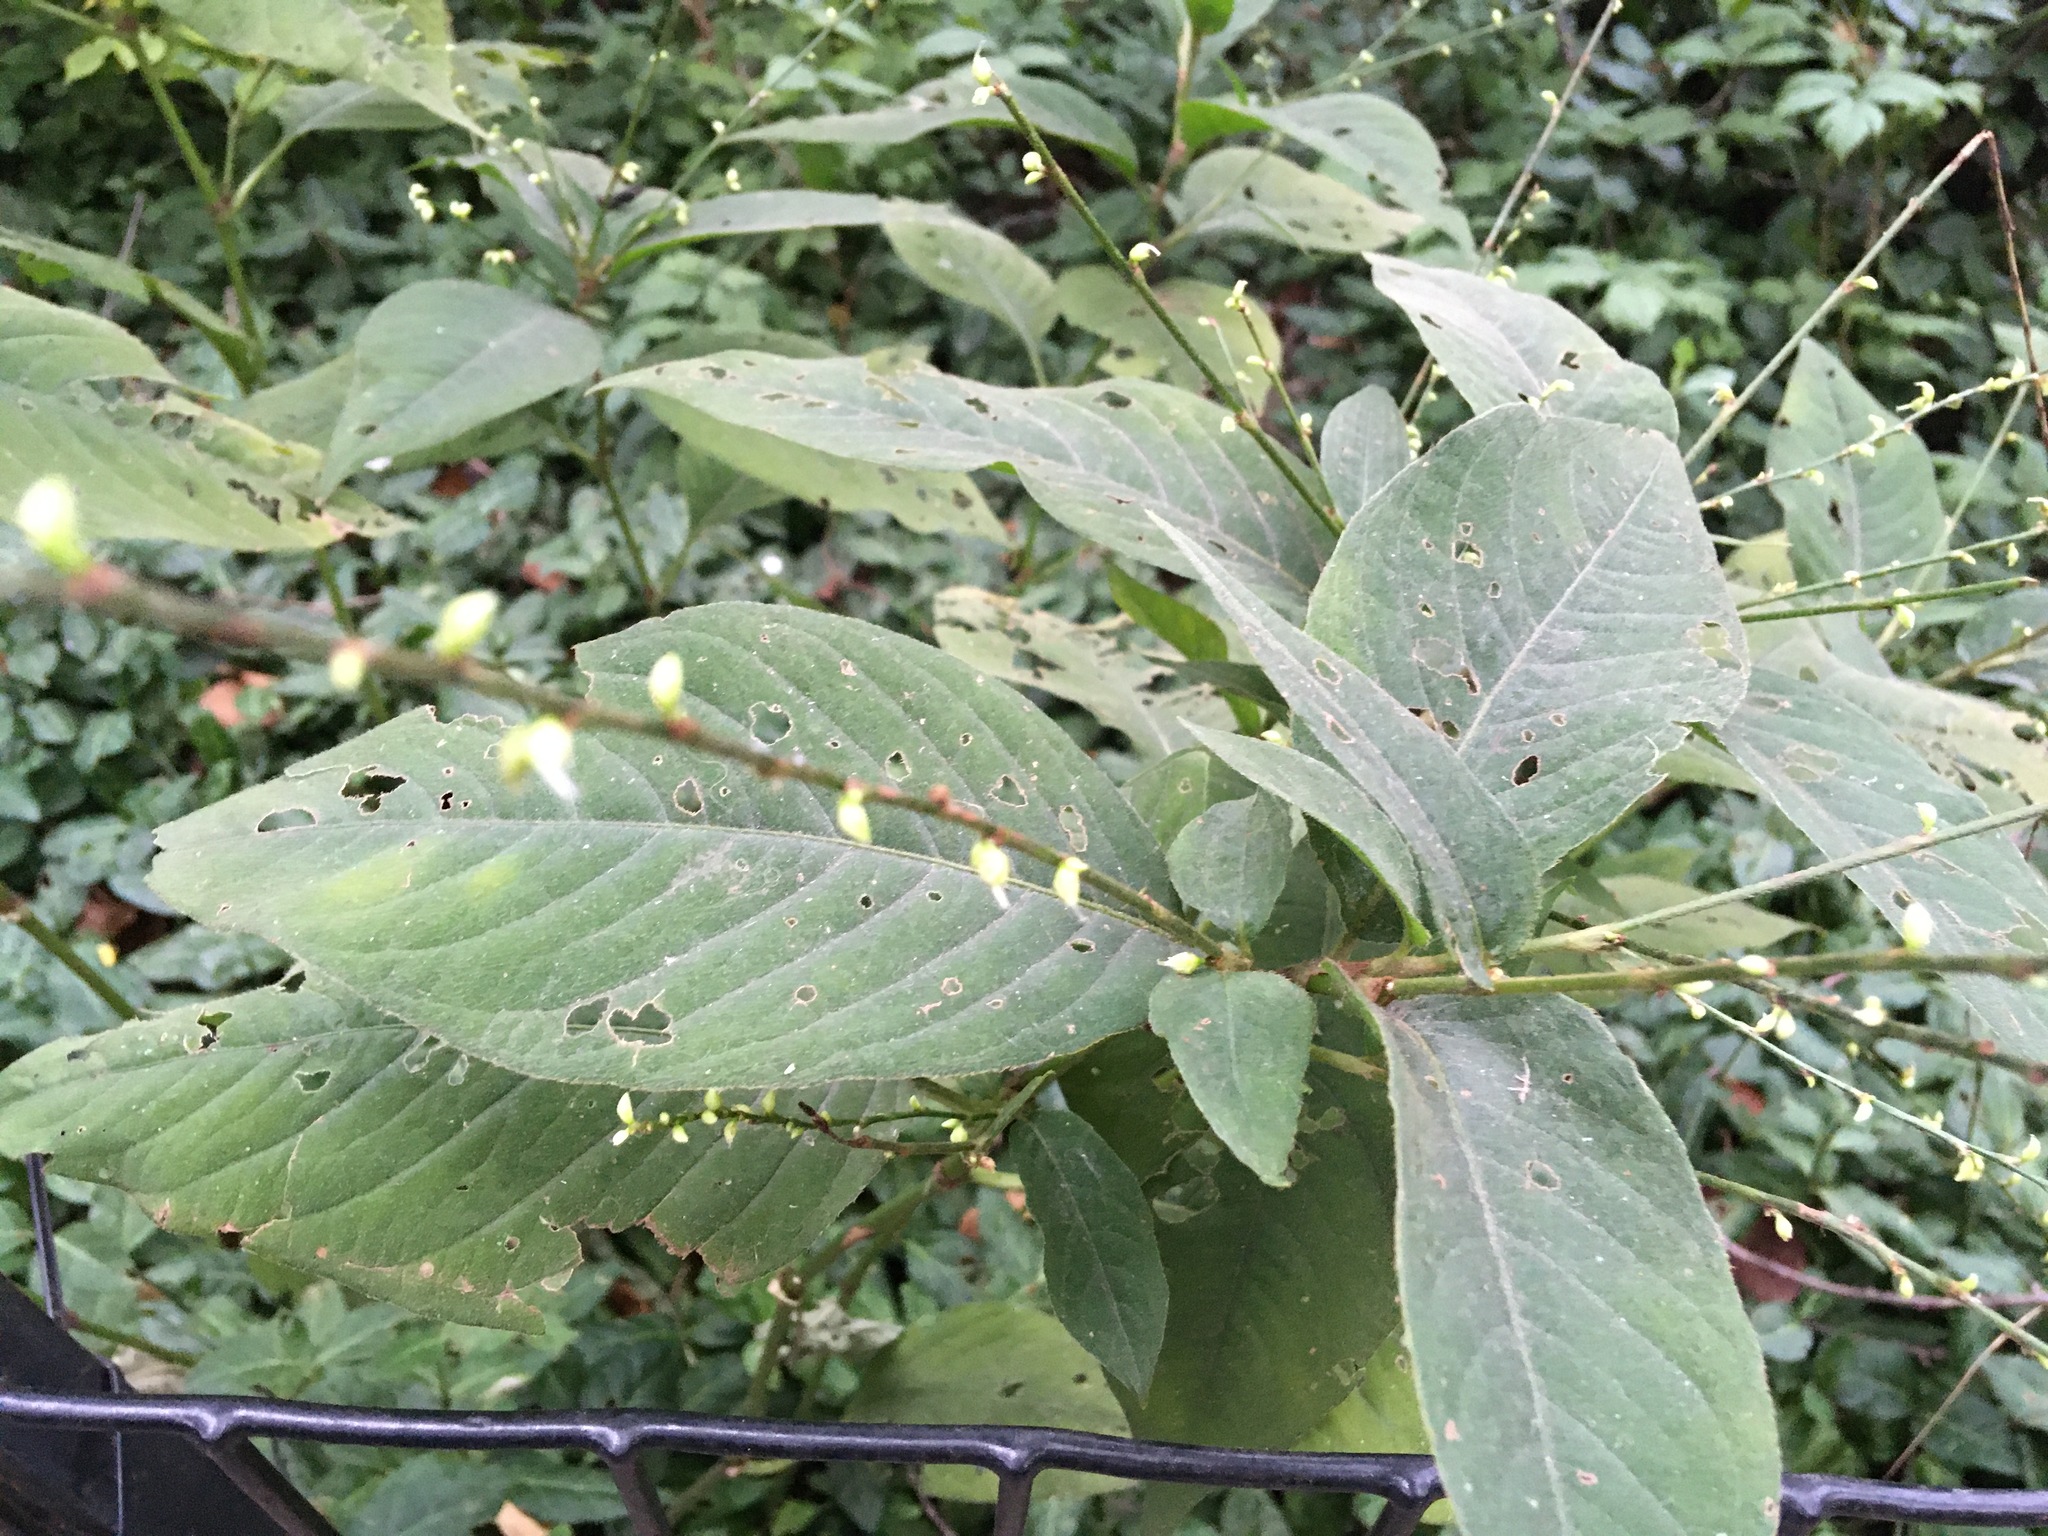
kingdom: Plantae
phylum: Tracheophyta
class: Magnoliopsida
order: Caryophyllales
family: Polygonaceae
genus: Persicaria
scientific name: Persicaria virginiana
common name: Jumpseed
